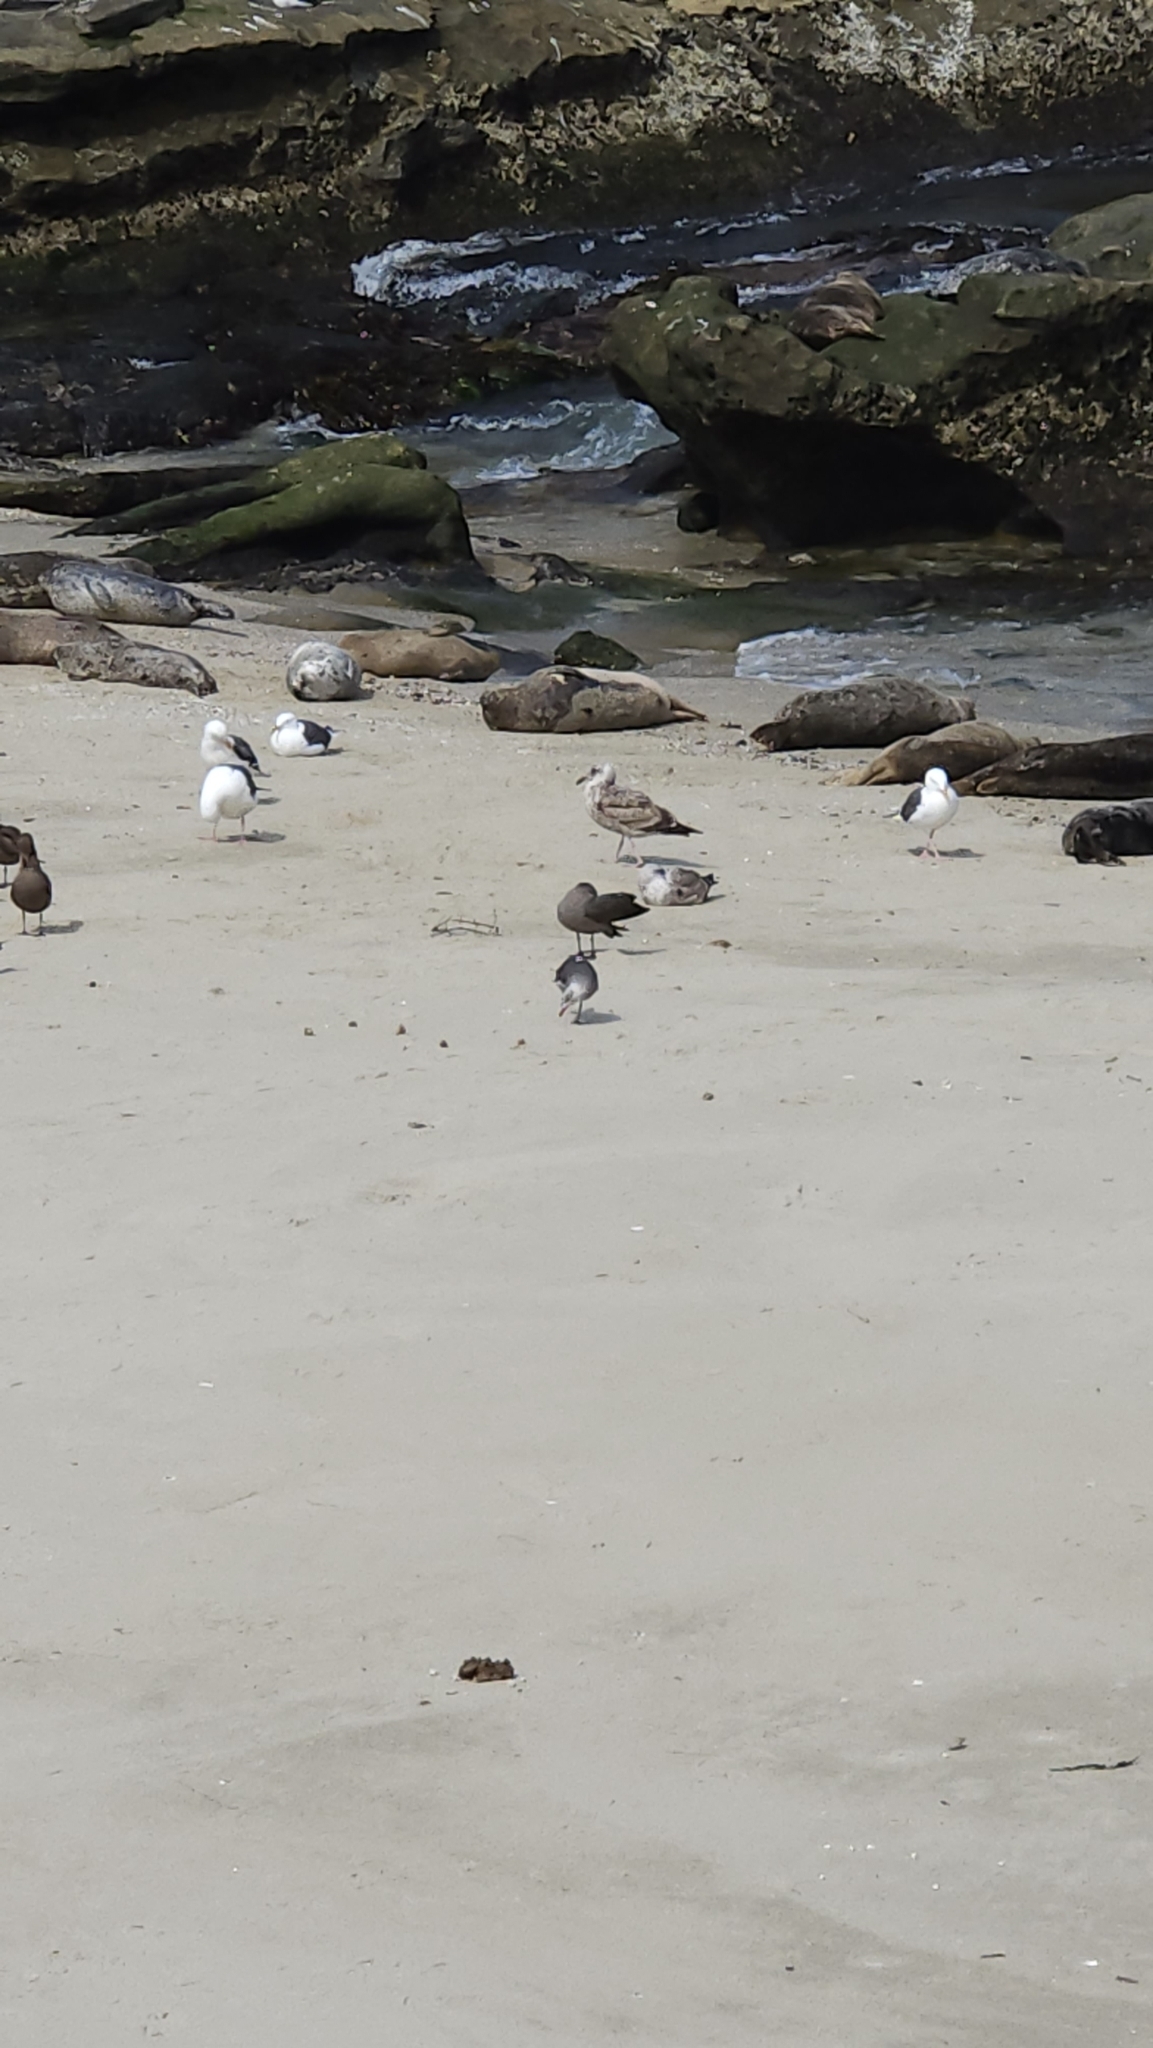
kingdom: Animalia
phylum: Chordata
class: Mammalia
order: Carnivora
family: Phocidae
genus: Phoca
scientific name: Phoca vitulina
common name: Harbor seal
